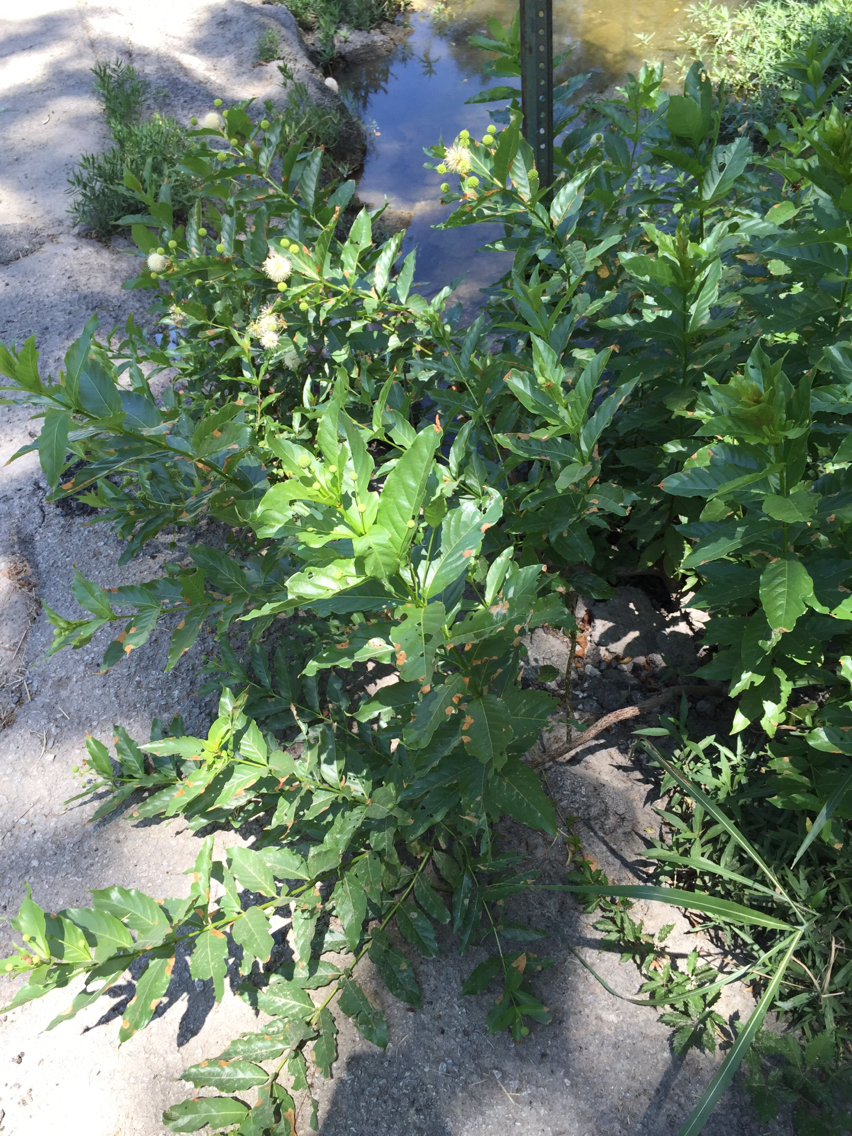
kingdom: Plantae
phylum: Tracheophyta
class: Magnoliopsida
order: Gentianales
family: Rubiaceae
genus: Cephalanthus
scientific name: Cephalanthus occidentalis
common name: Button-willow
